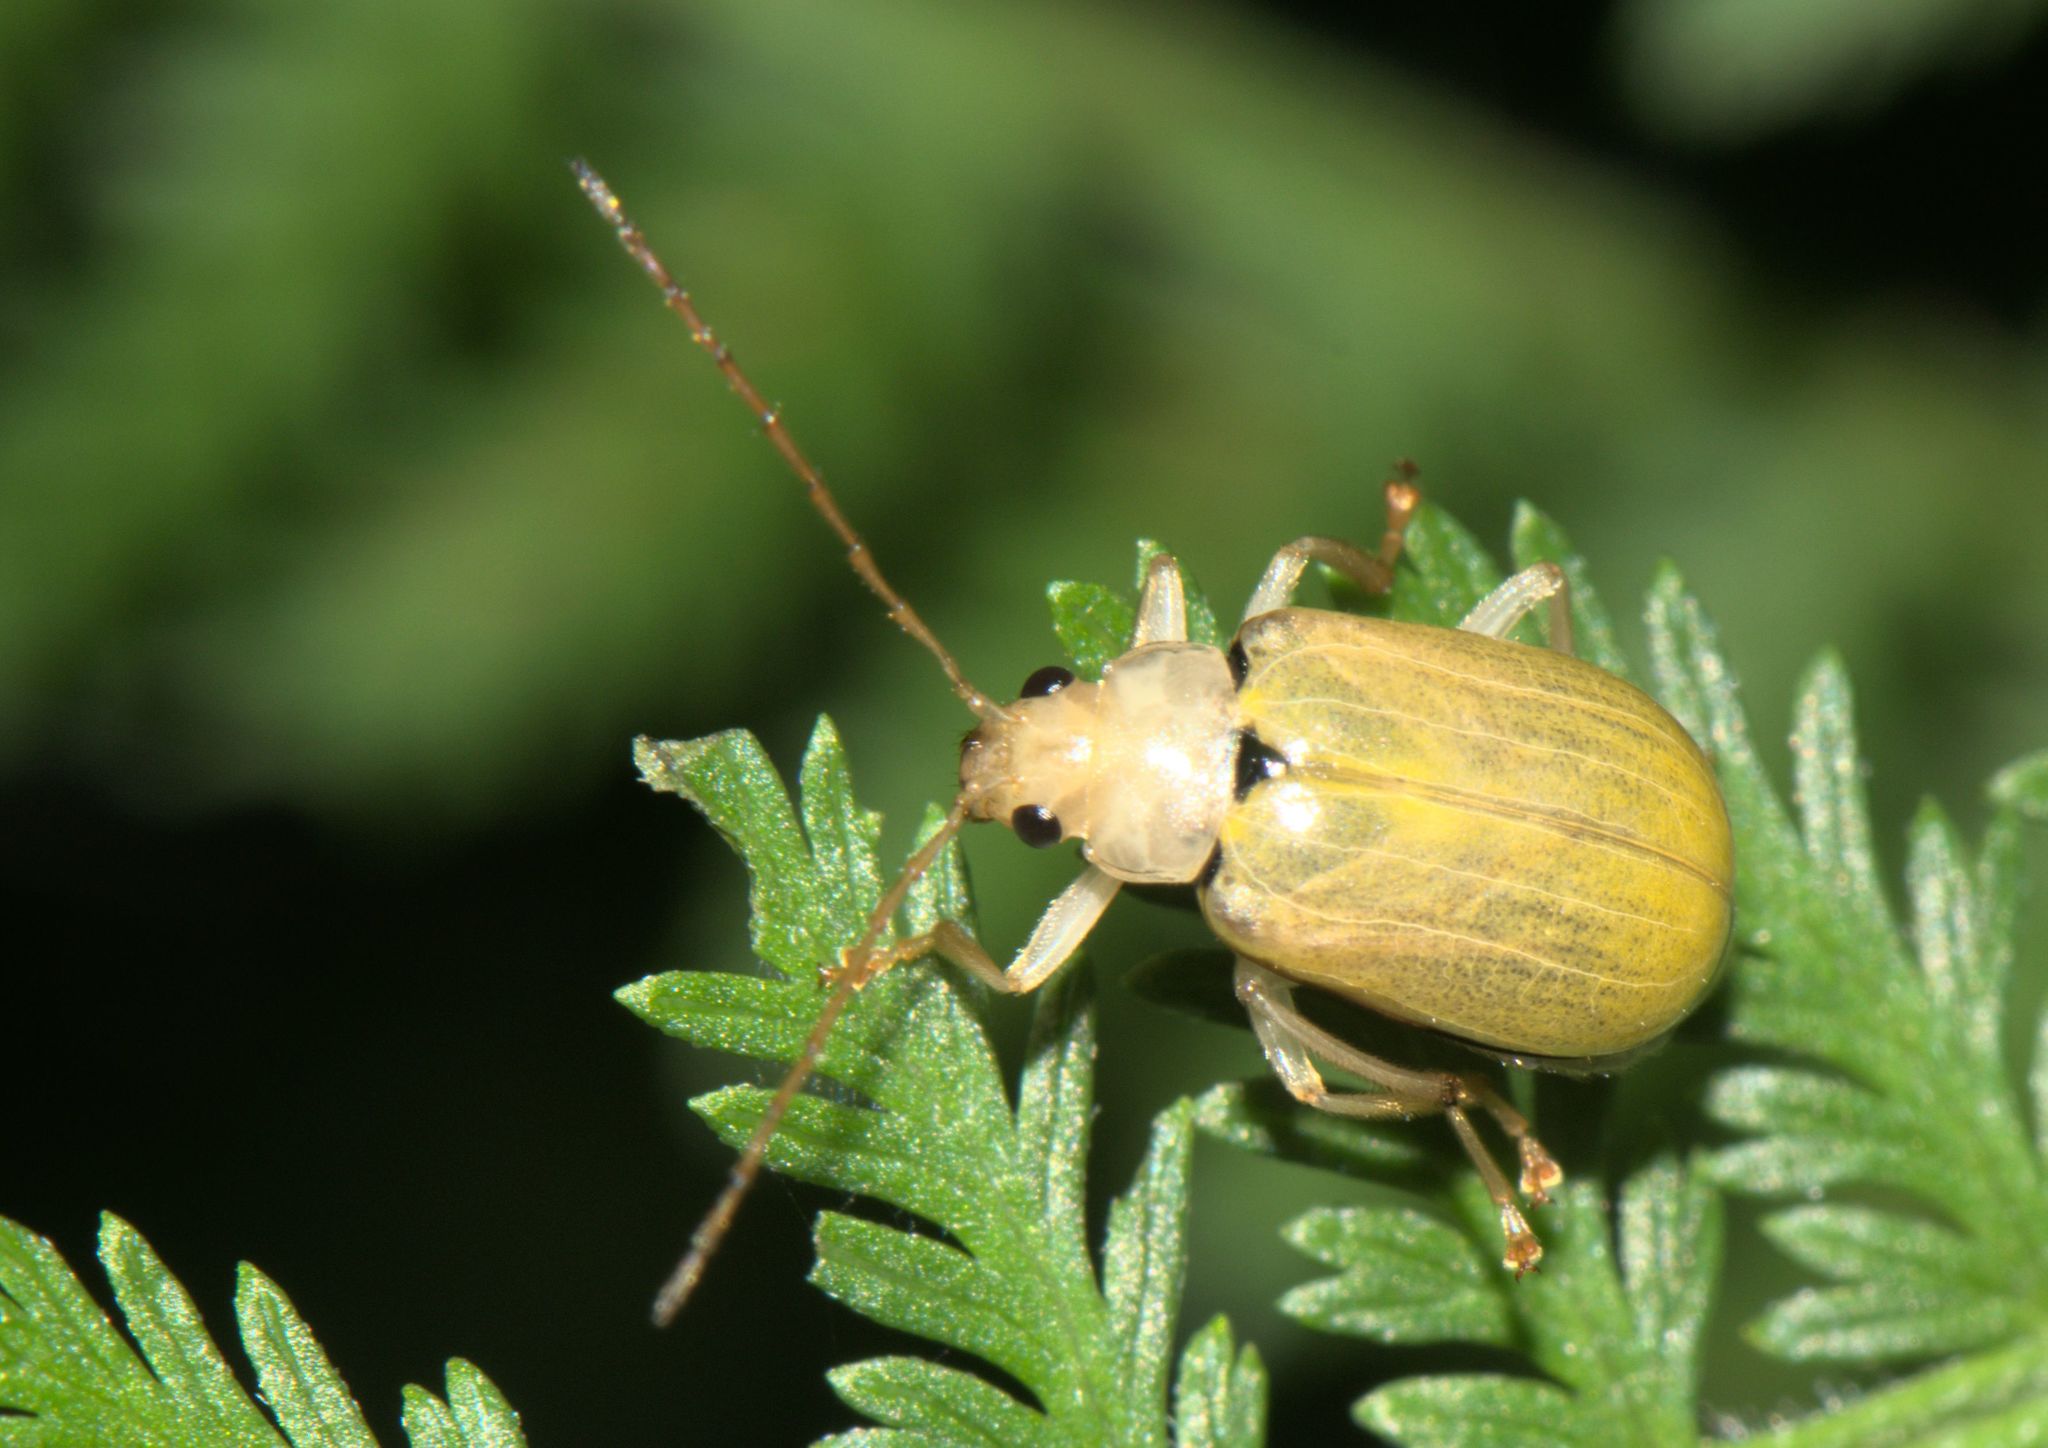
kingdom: Animalia
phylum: Arthropoda
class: Insecta
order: Coleoptera
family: Chrysomelidae
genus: Macrima
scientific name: Macrima
